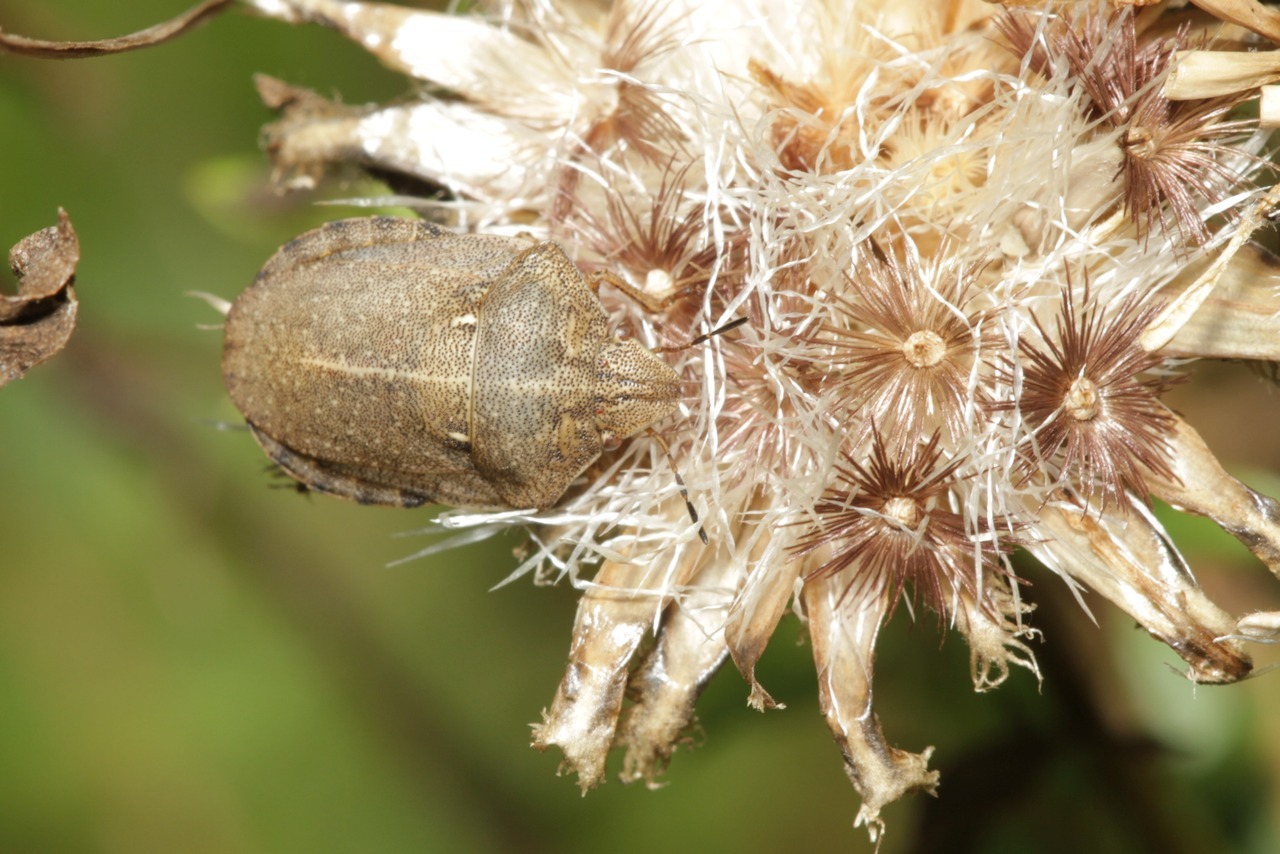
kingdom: Animalia
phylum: Arthropoda
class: Insecta
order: Hemiptera
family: Scutelleridae
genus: Eurygaster
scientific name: Eurygaster testudinaria
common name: Tortoise bug
